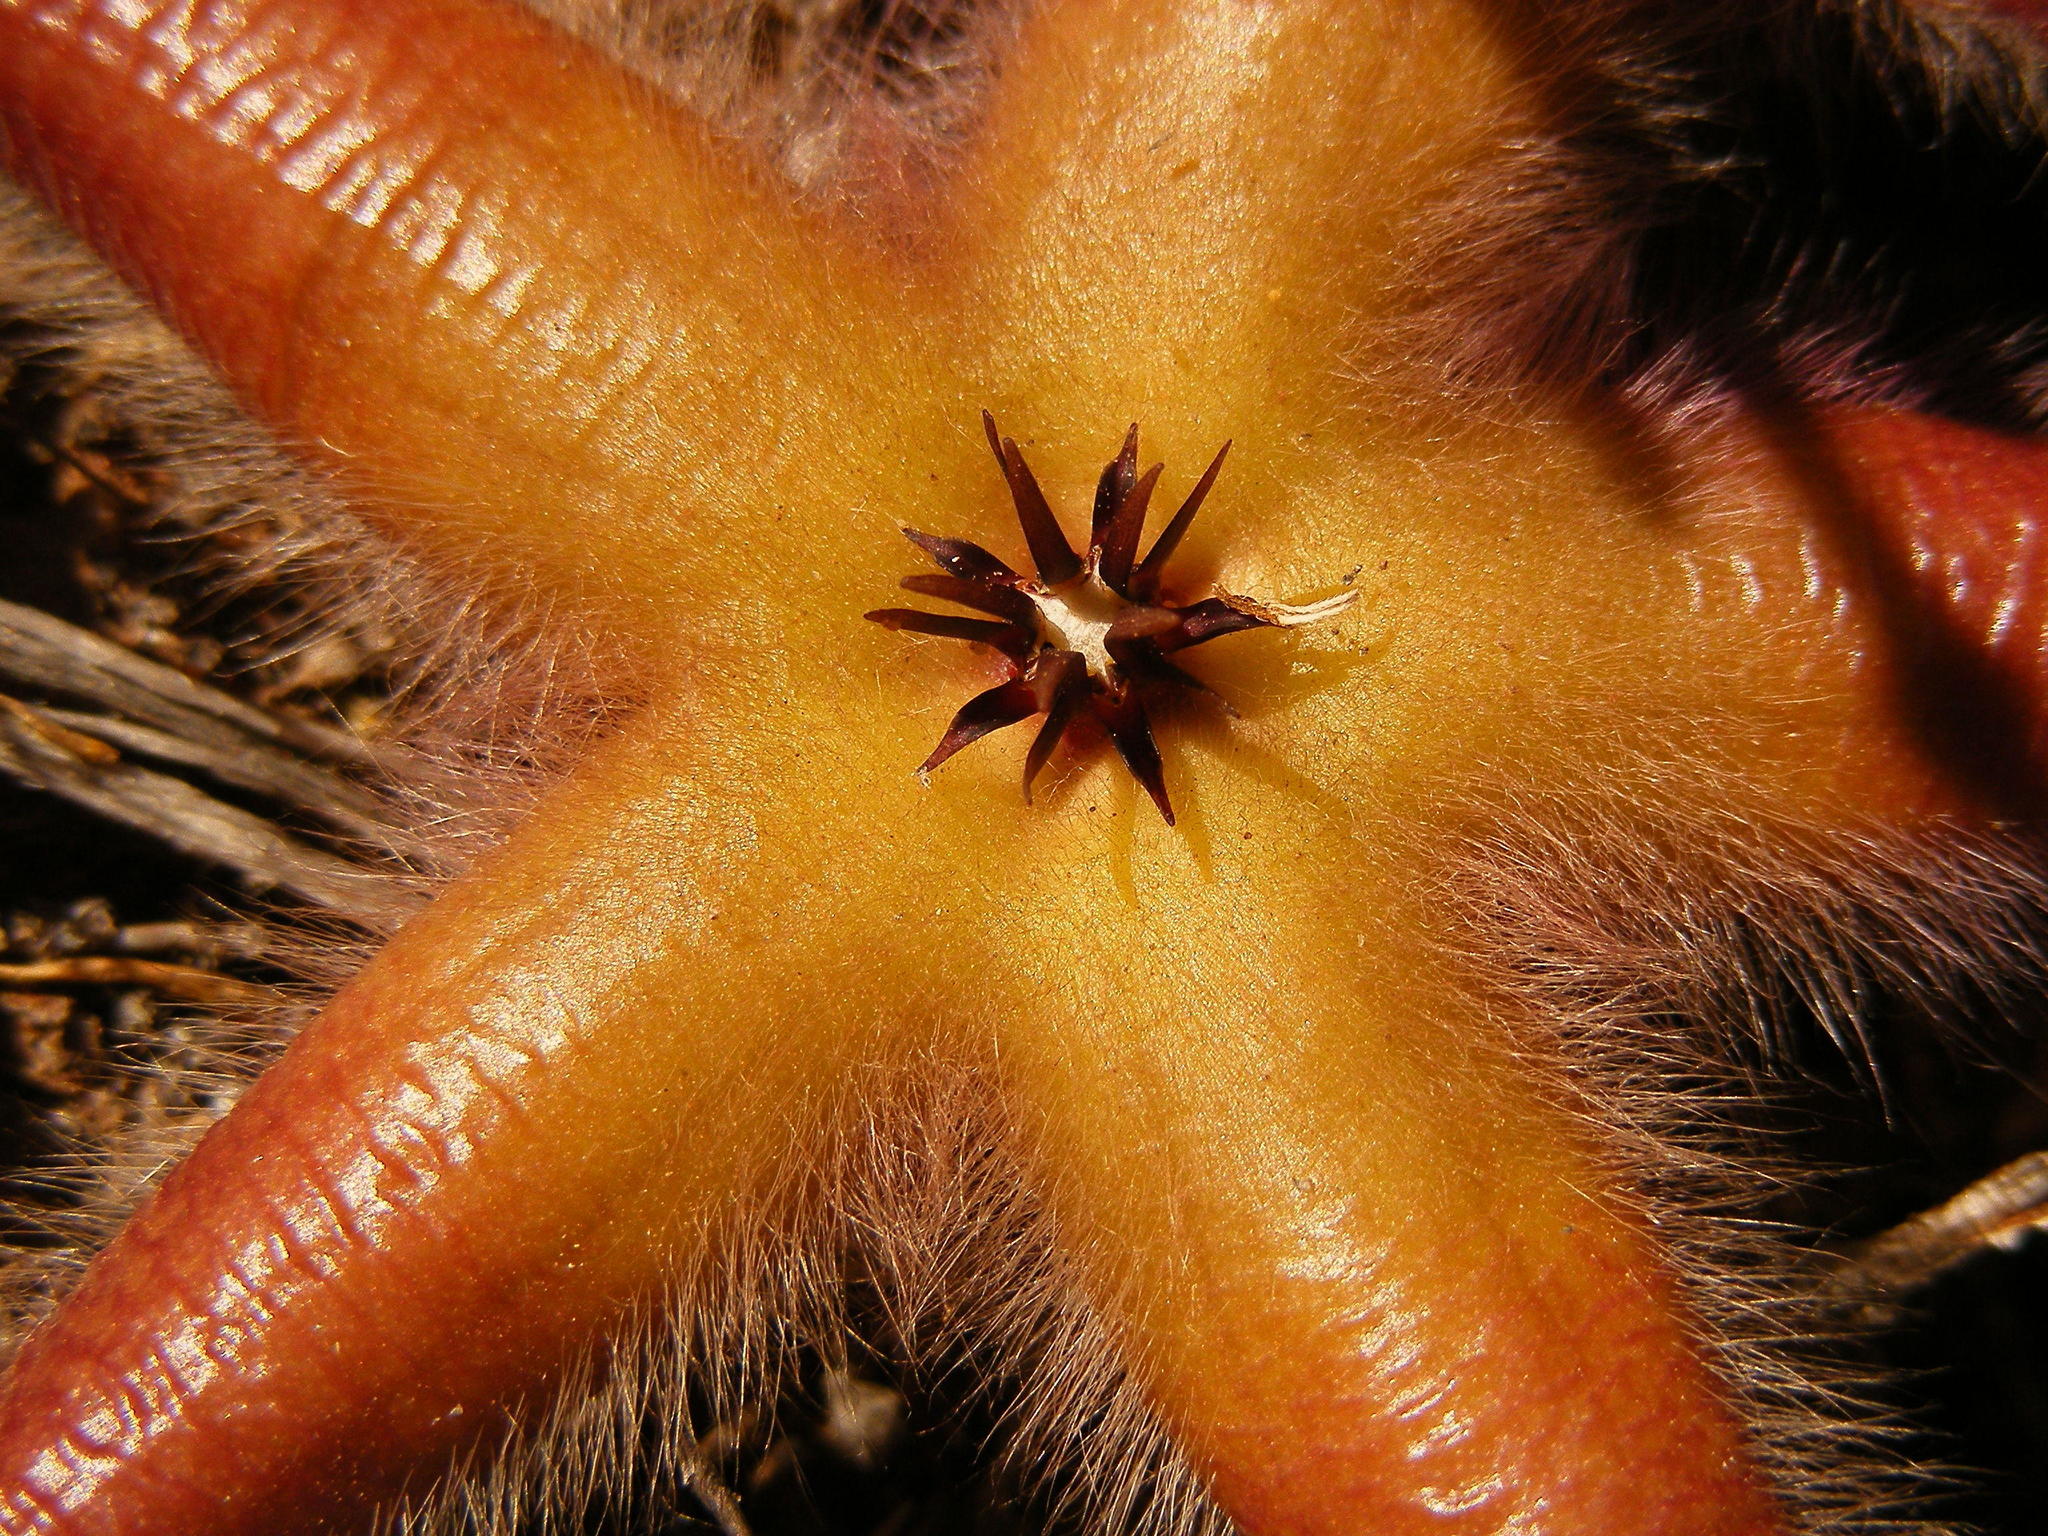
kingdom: Plantae
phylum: Tracheophyta
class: Magnoliopsida
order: Gentianales
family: Apocynaceae
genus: Ceropegia
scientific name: Ceropegia pulvinata
